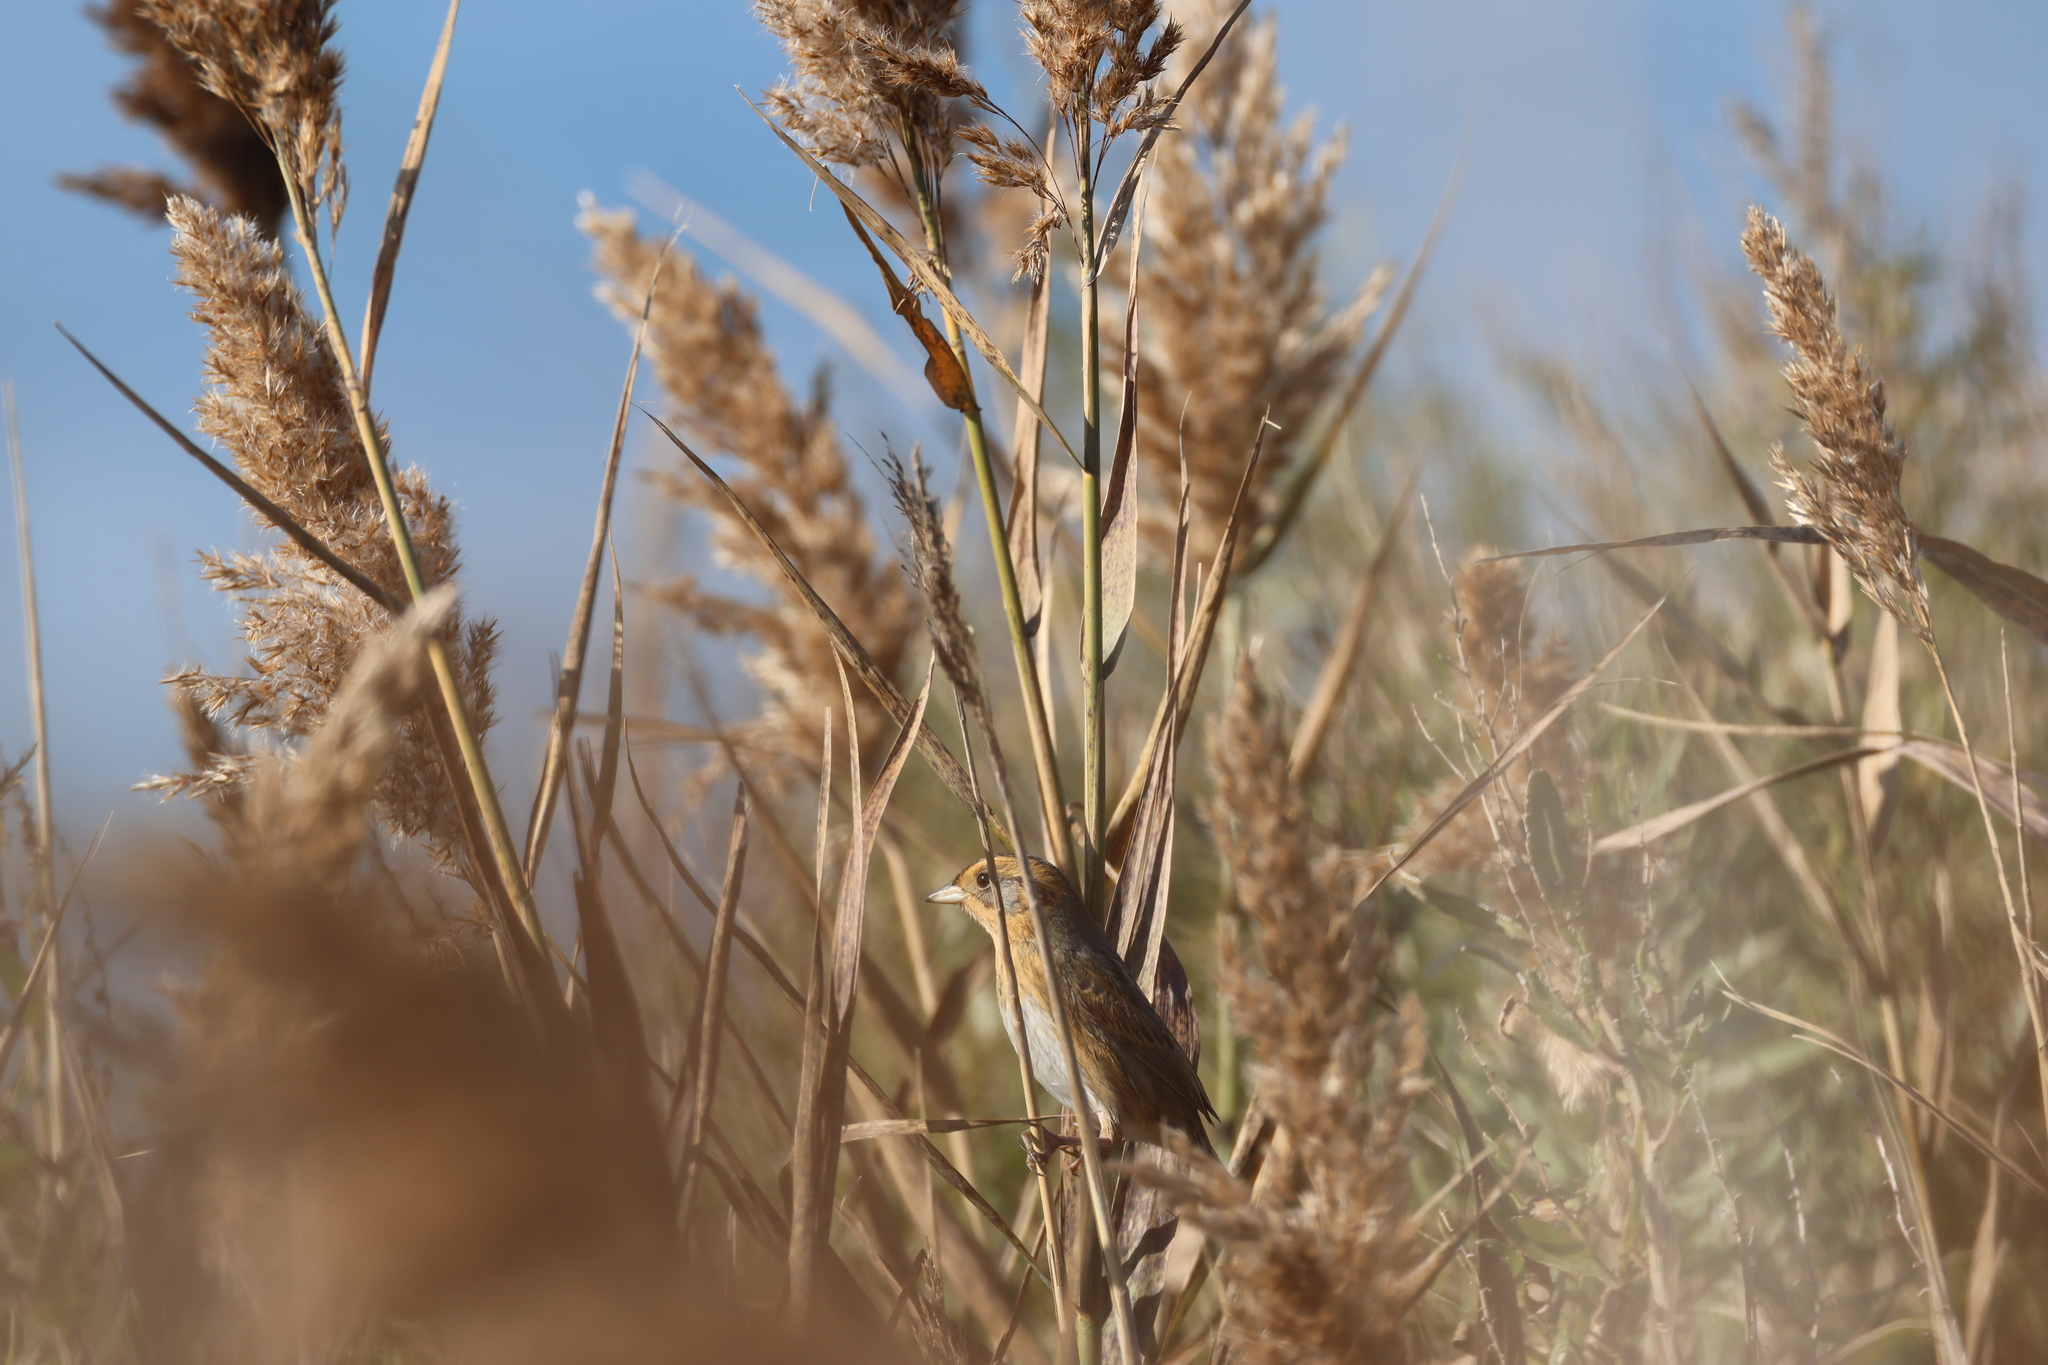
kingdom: Animalia
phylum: Chordata
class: Aves
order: Passeriformes
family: Passerellidae
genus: Ammospiza
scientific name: Ammospiza nelsoni
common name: Nelson's sparrow
